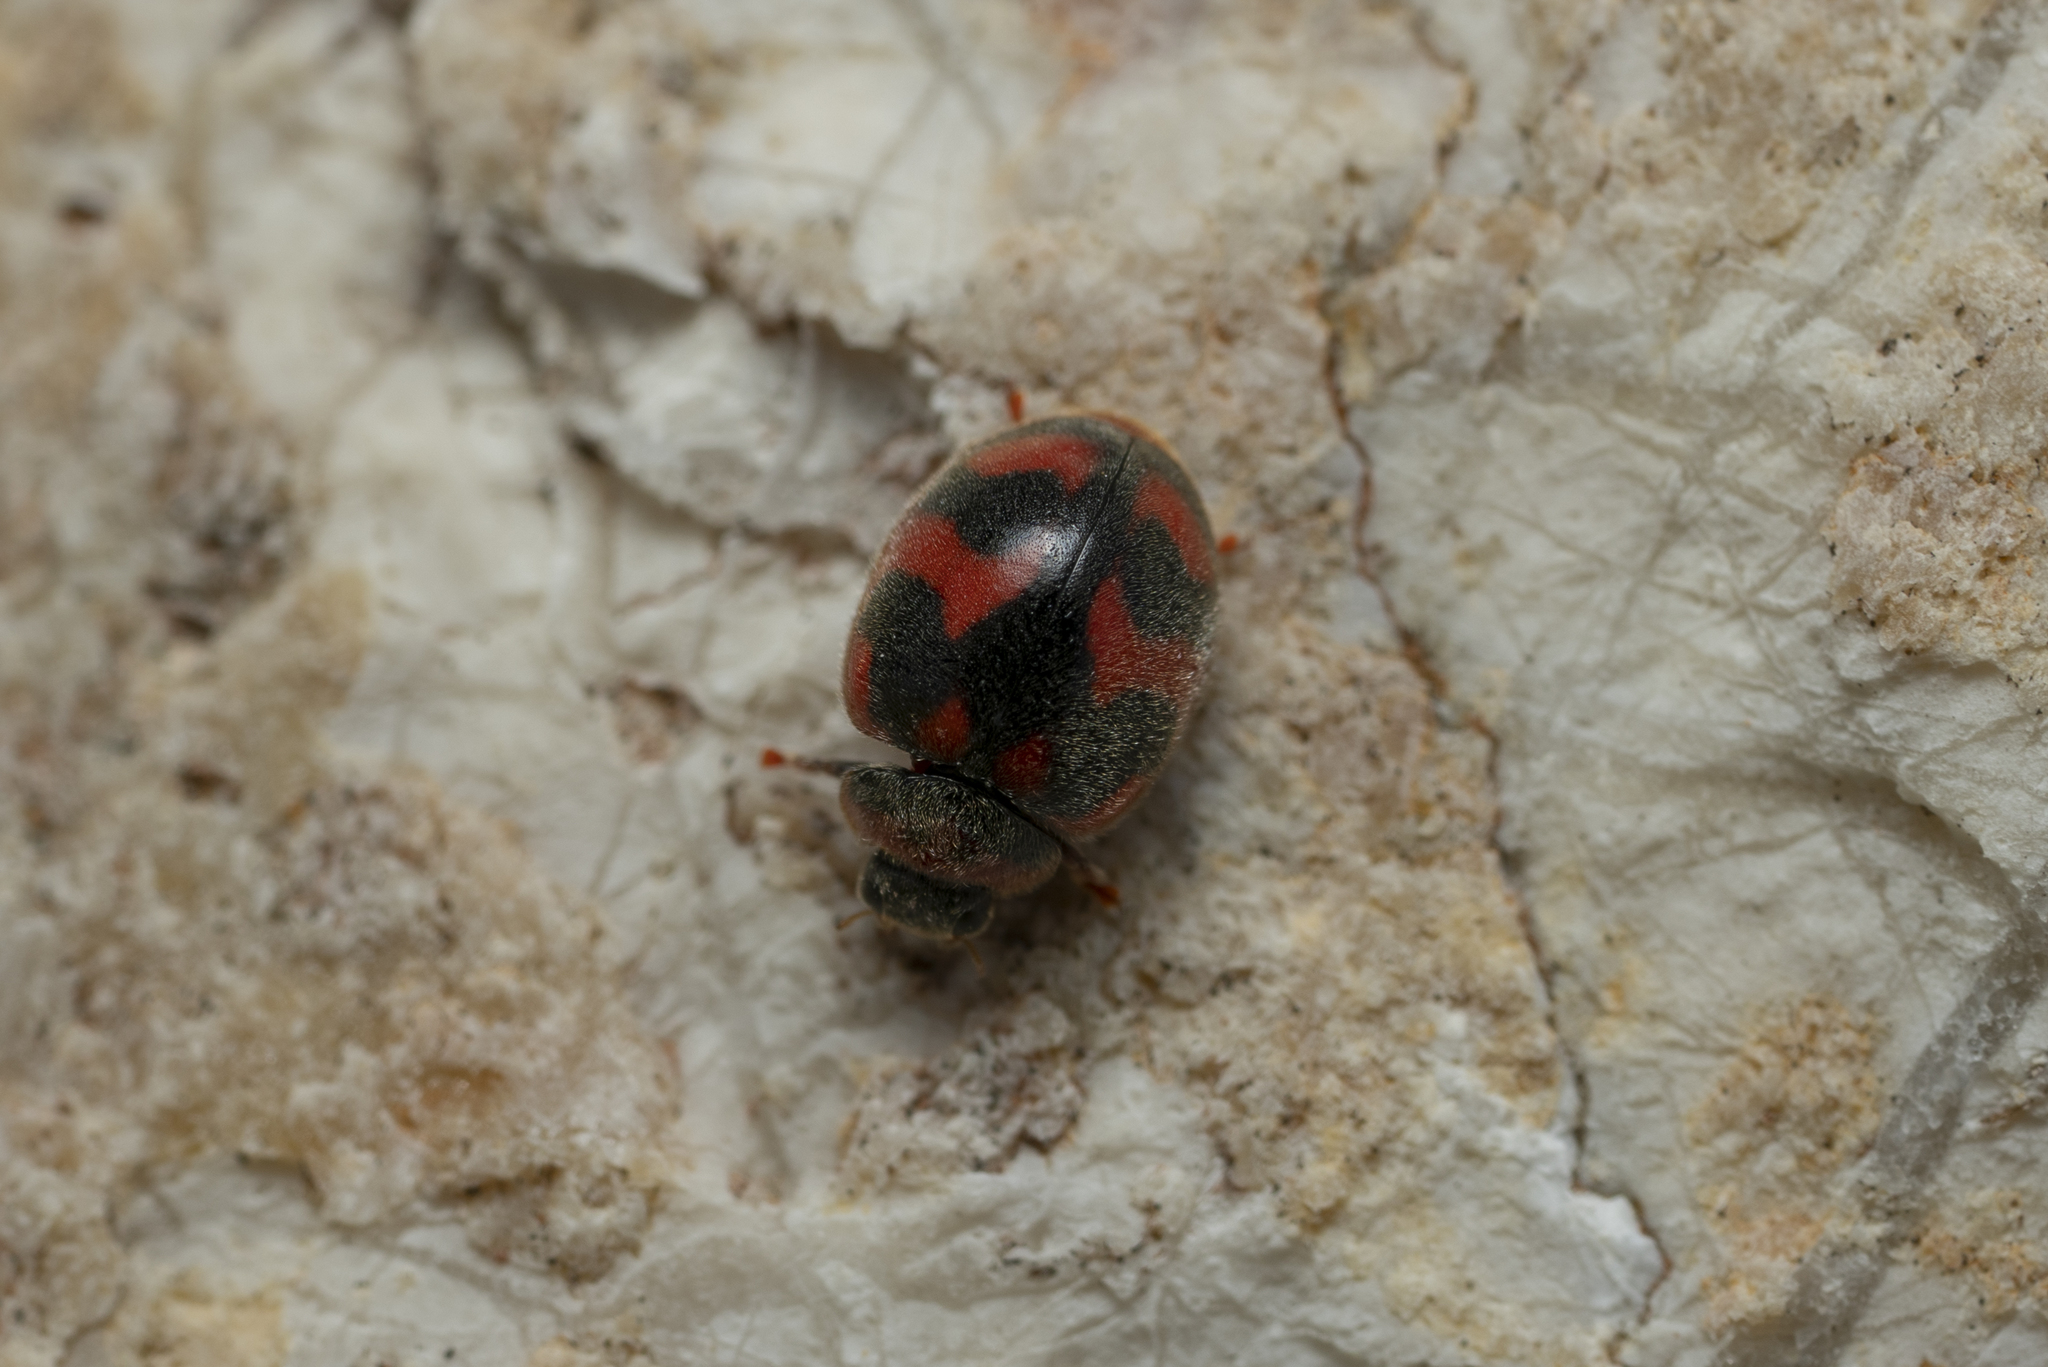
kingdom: Animalia
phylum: Arthropoda
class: Insecta
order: Coleoptera
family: Coccinellidae
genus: Novius
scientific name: Novius cardinalis
